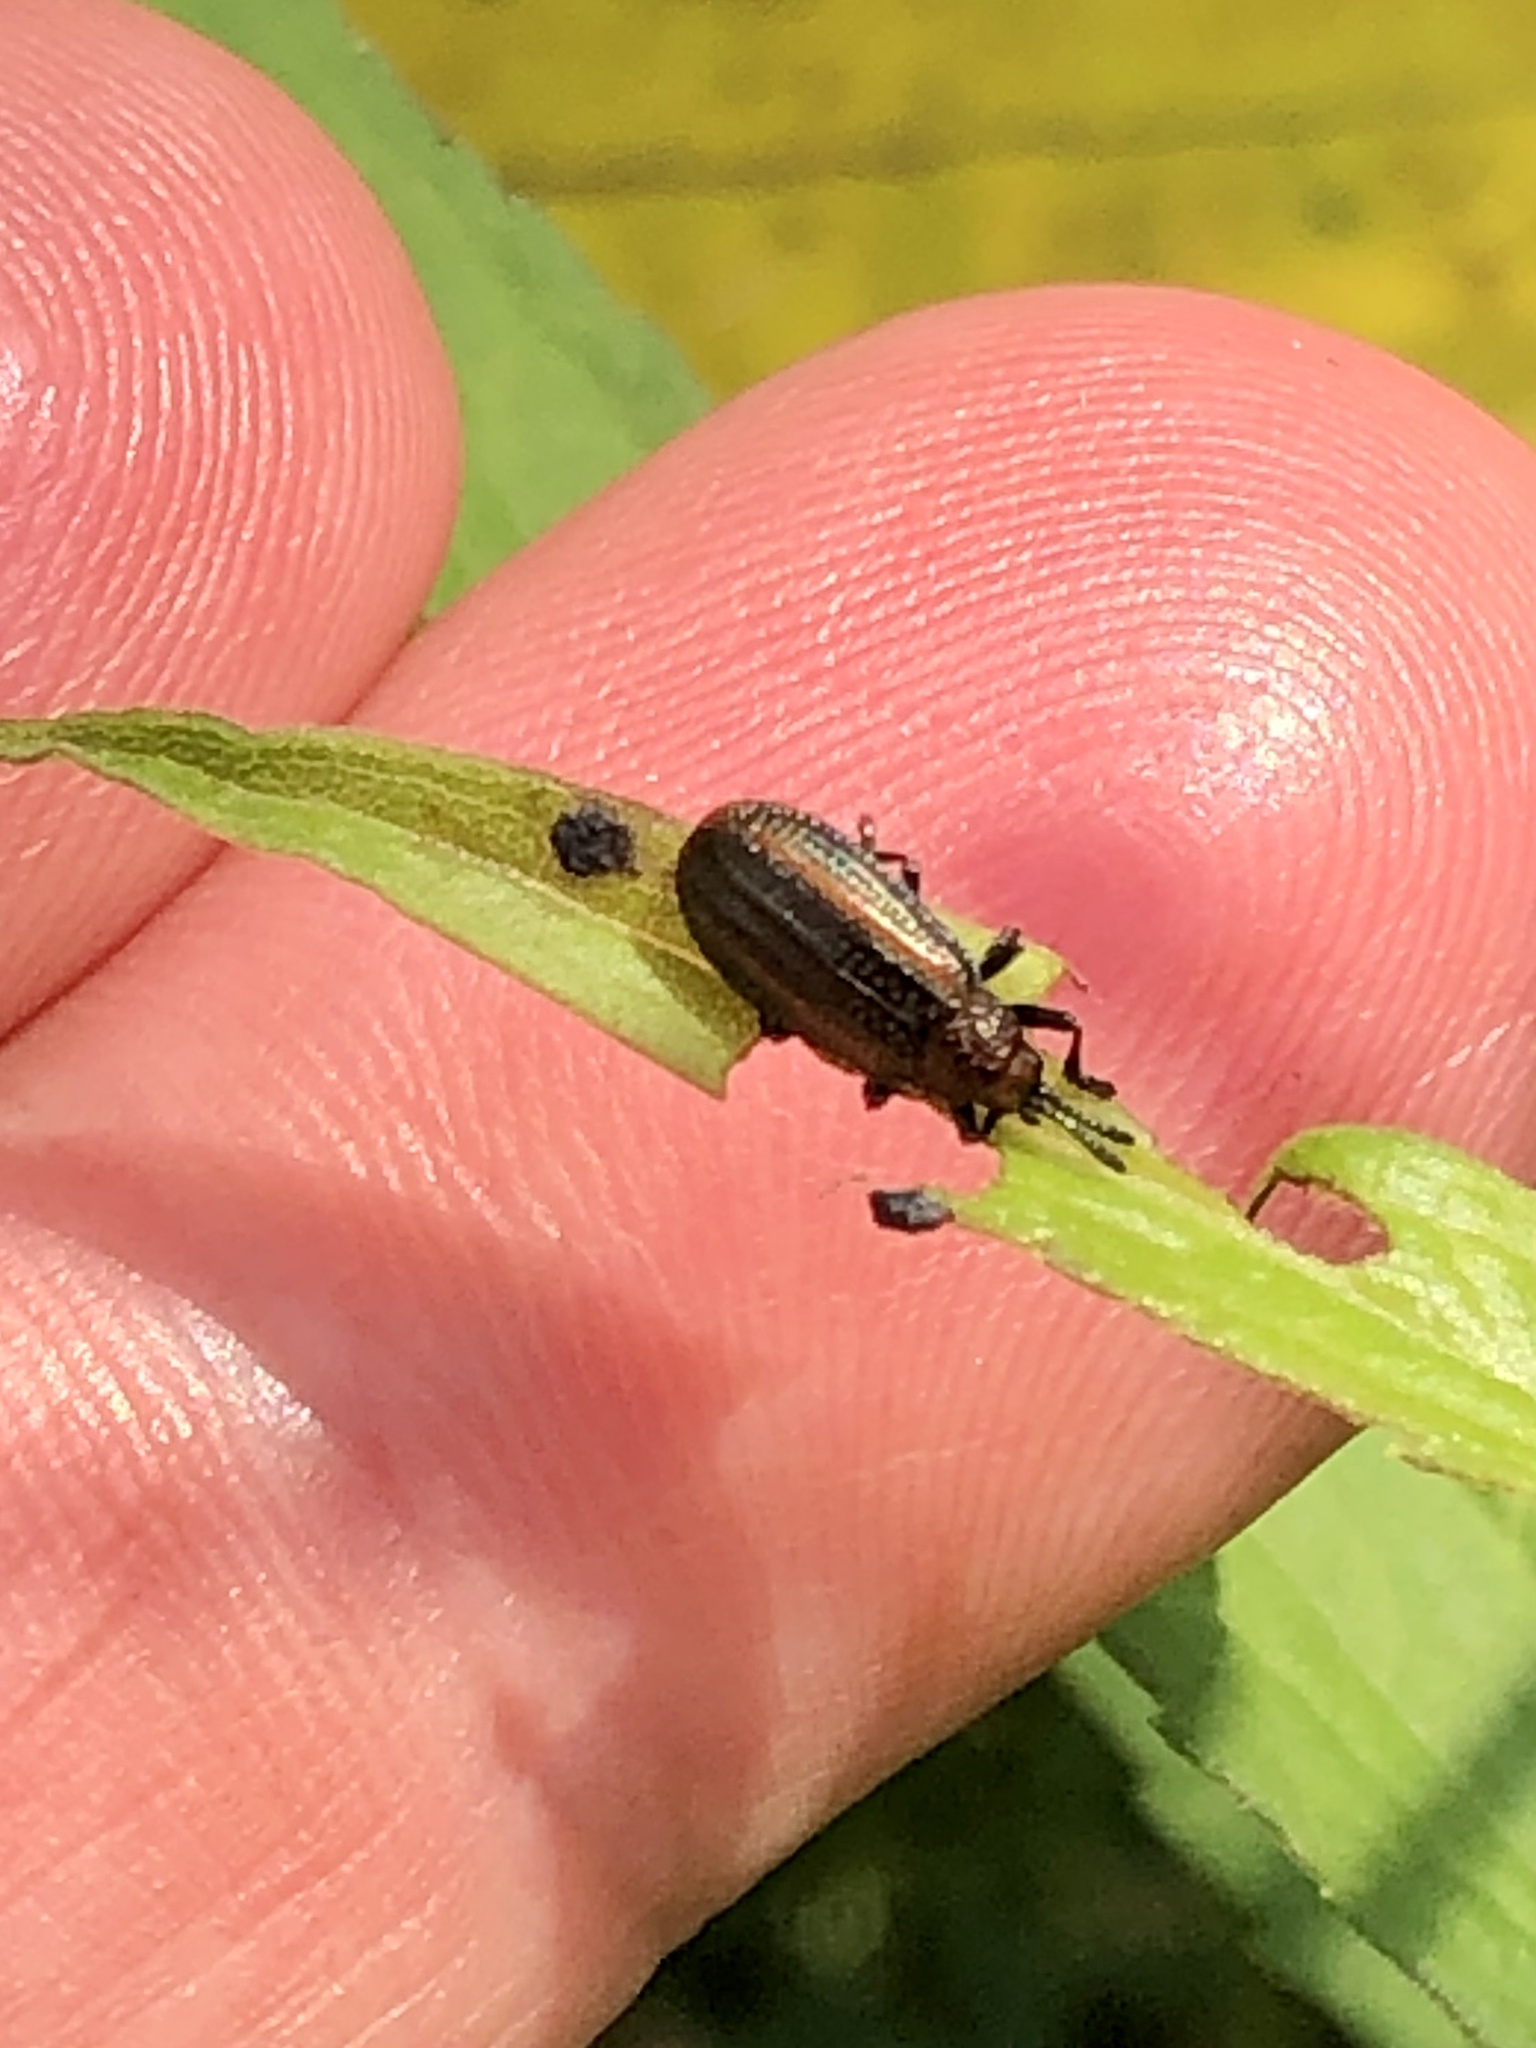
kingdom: Animalia
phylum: Arthropoda
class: Insecta
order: Coleoptera
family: Chrysomelidae
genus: Microrhopala
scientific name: Microrhopala vittata
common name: Goldenrod leaf miner beetle
